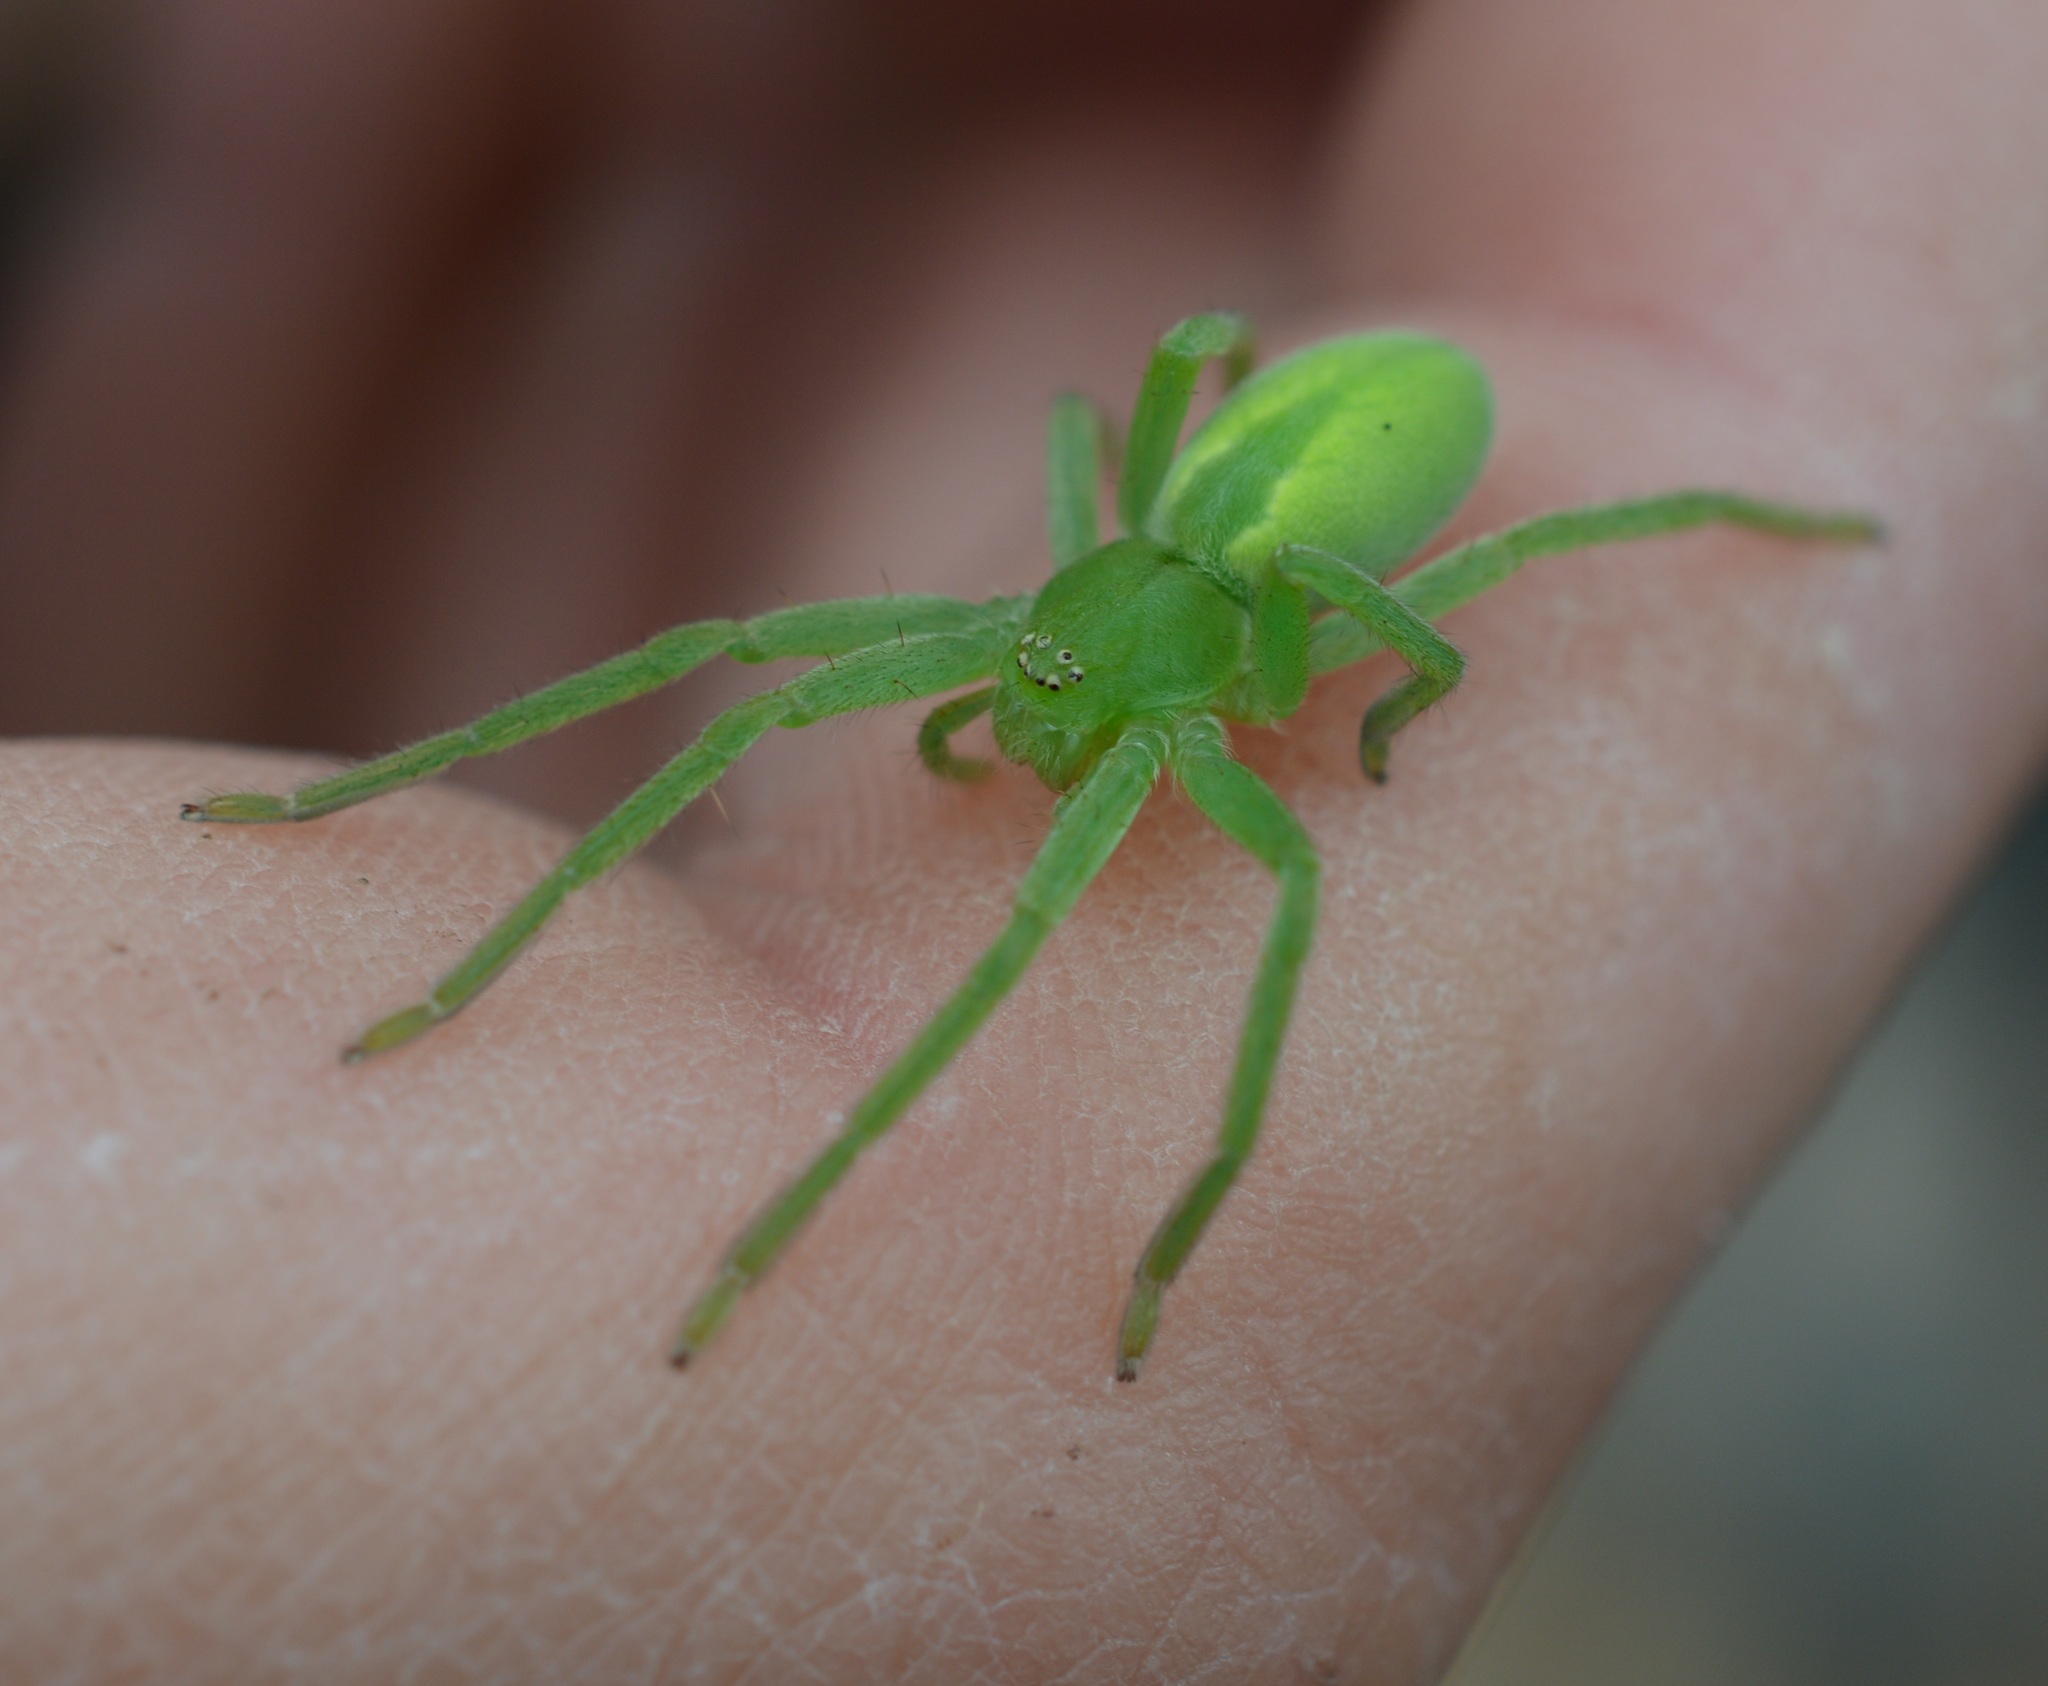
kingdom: Animalia
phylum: Arthropoda
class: Arachnida
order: Araneae
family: Sparassidae
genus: Micrommata
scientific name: Micrommata virescens
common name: Green spider
